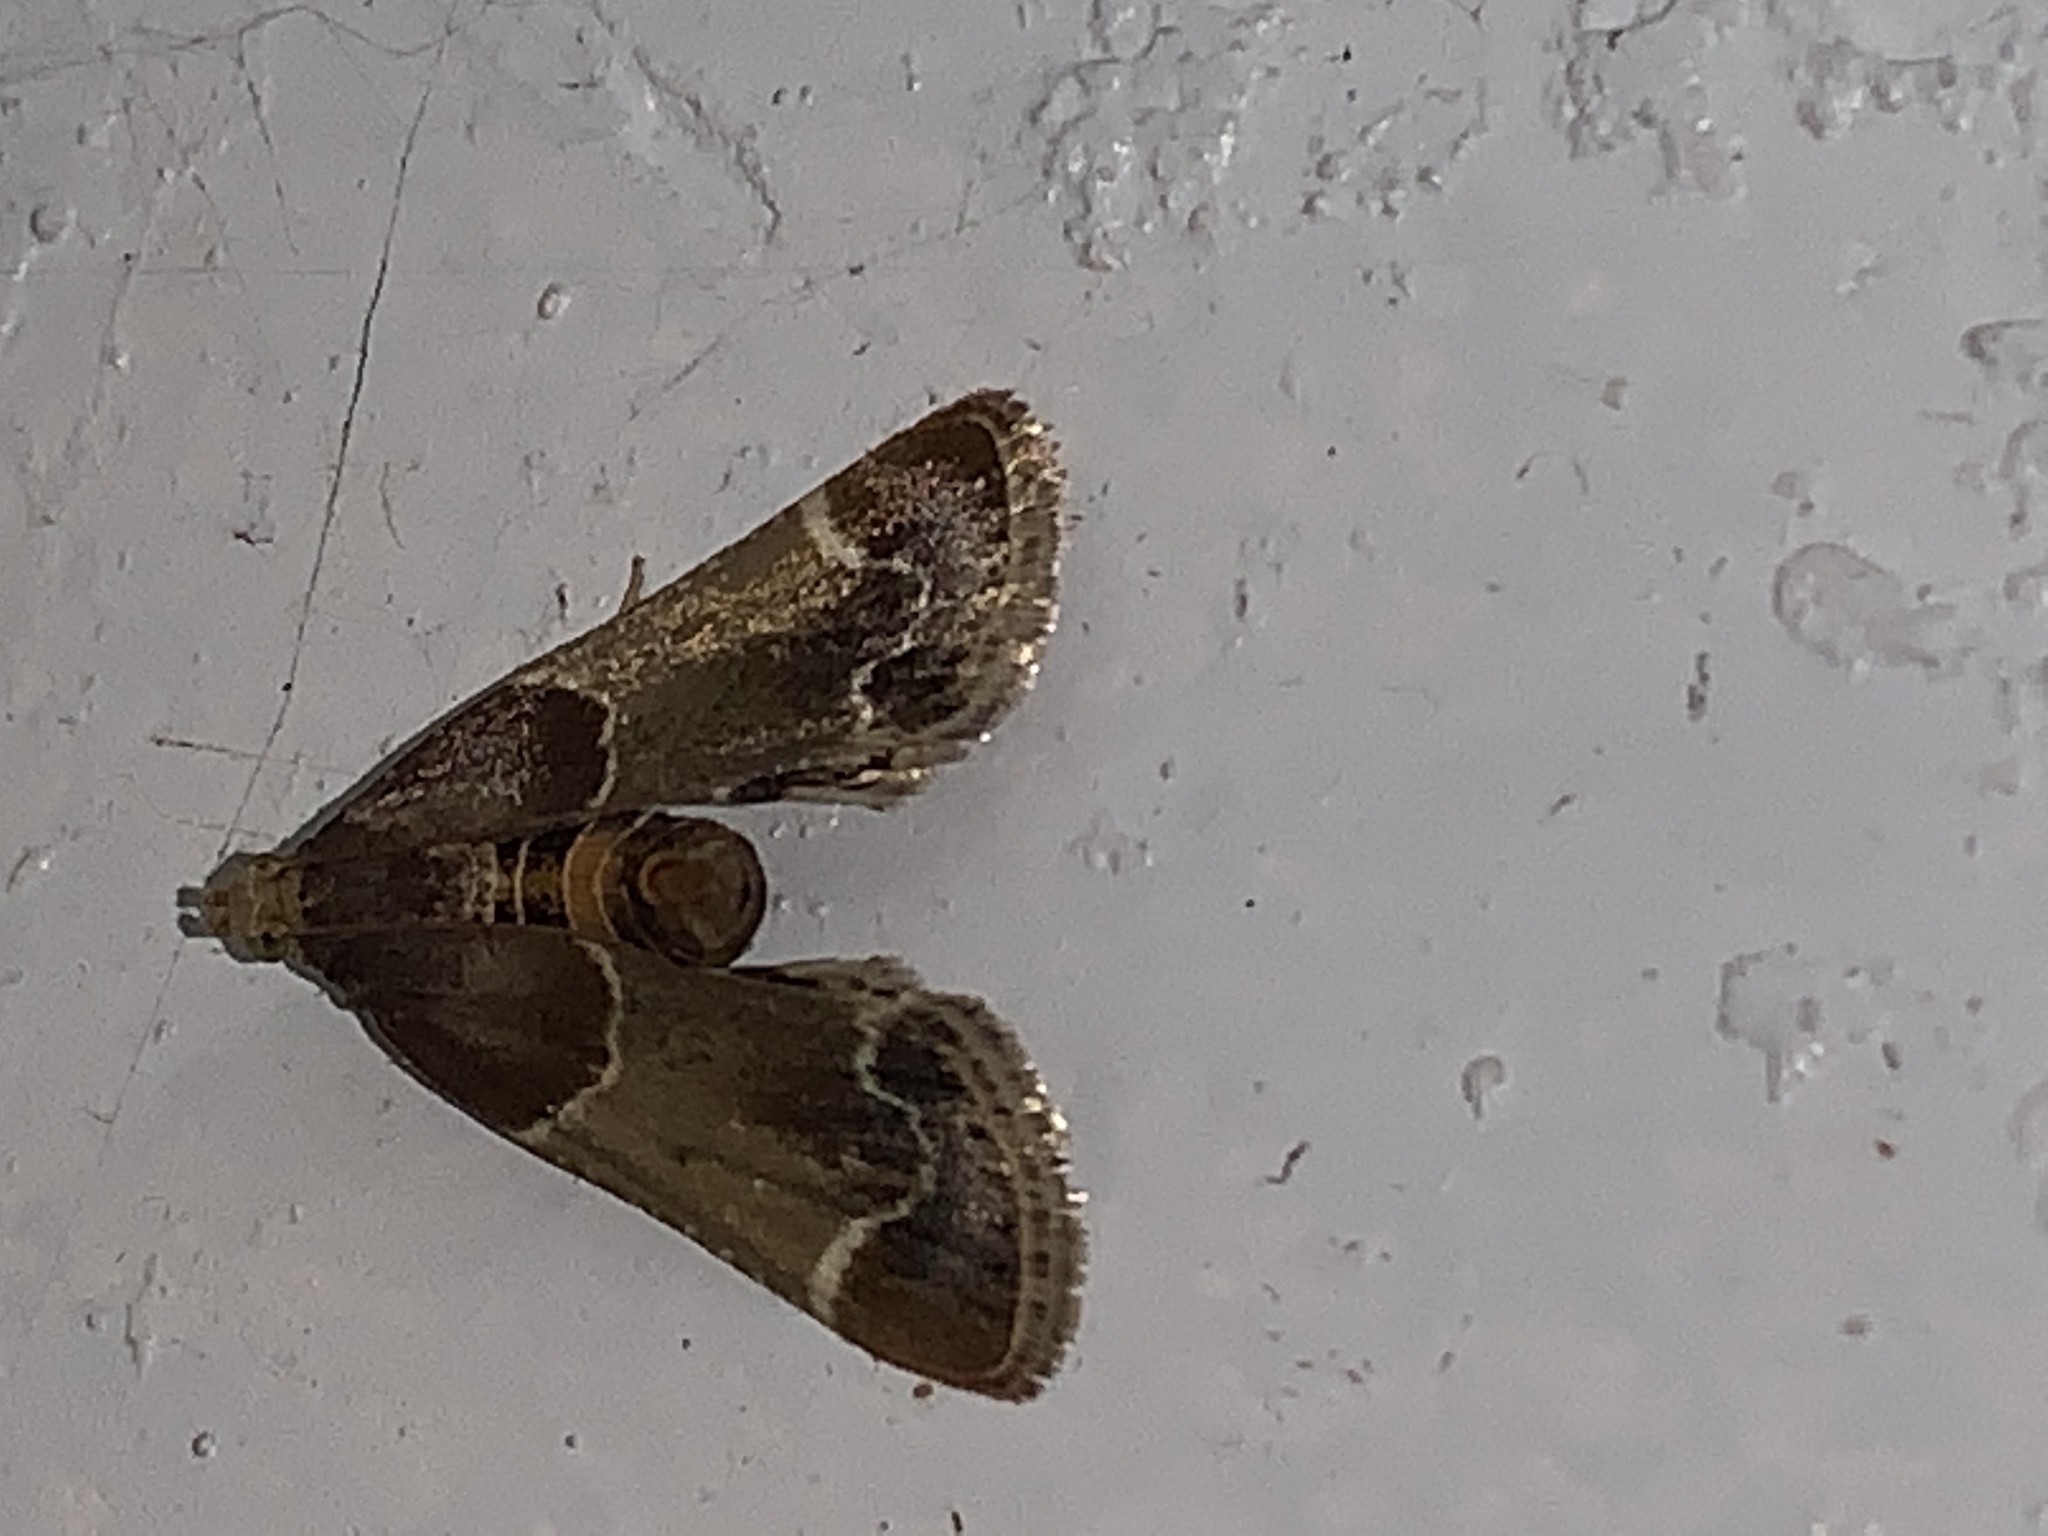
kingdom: Animalia
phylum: Arthropoda
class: Insecta
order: Lepidoptera
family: Pyralidae
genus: Pyralis
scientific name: Pyralis farinalis
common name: Meal moth
